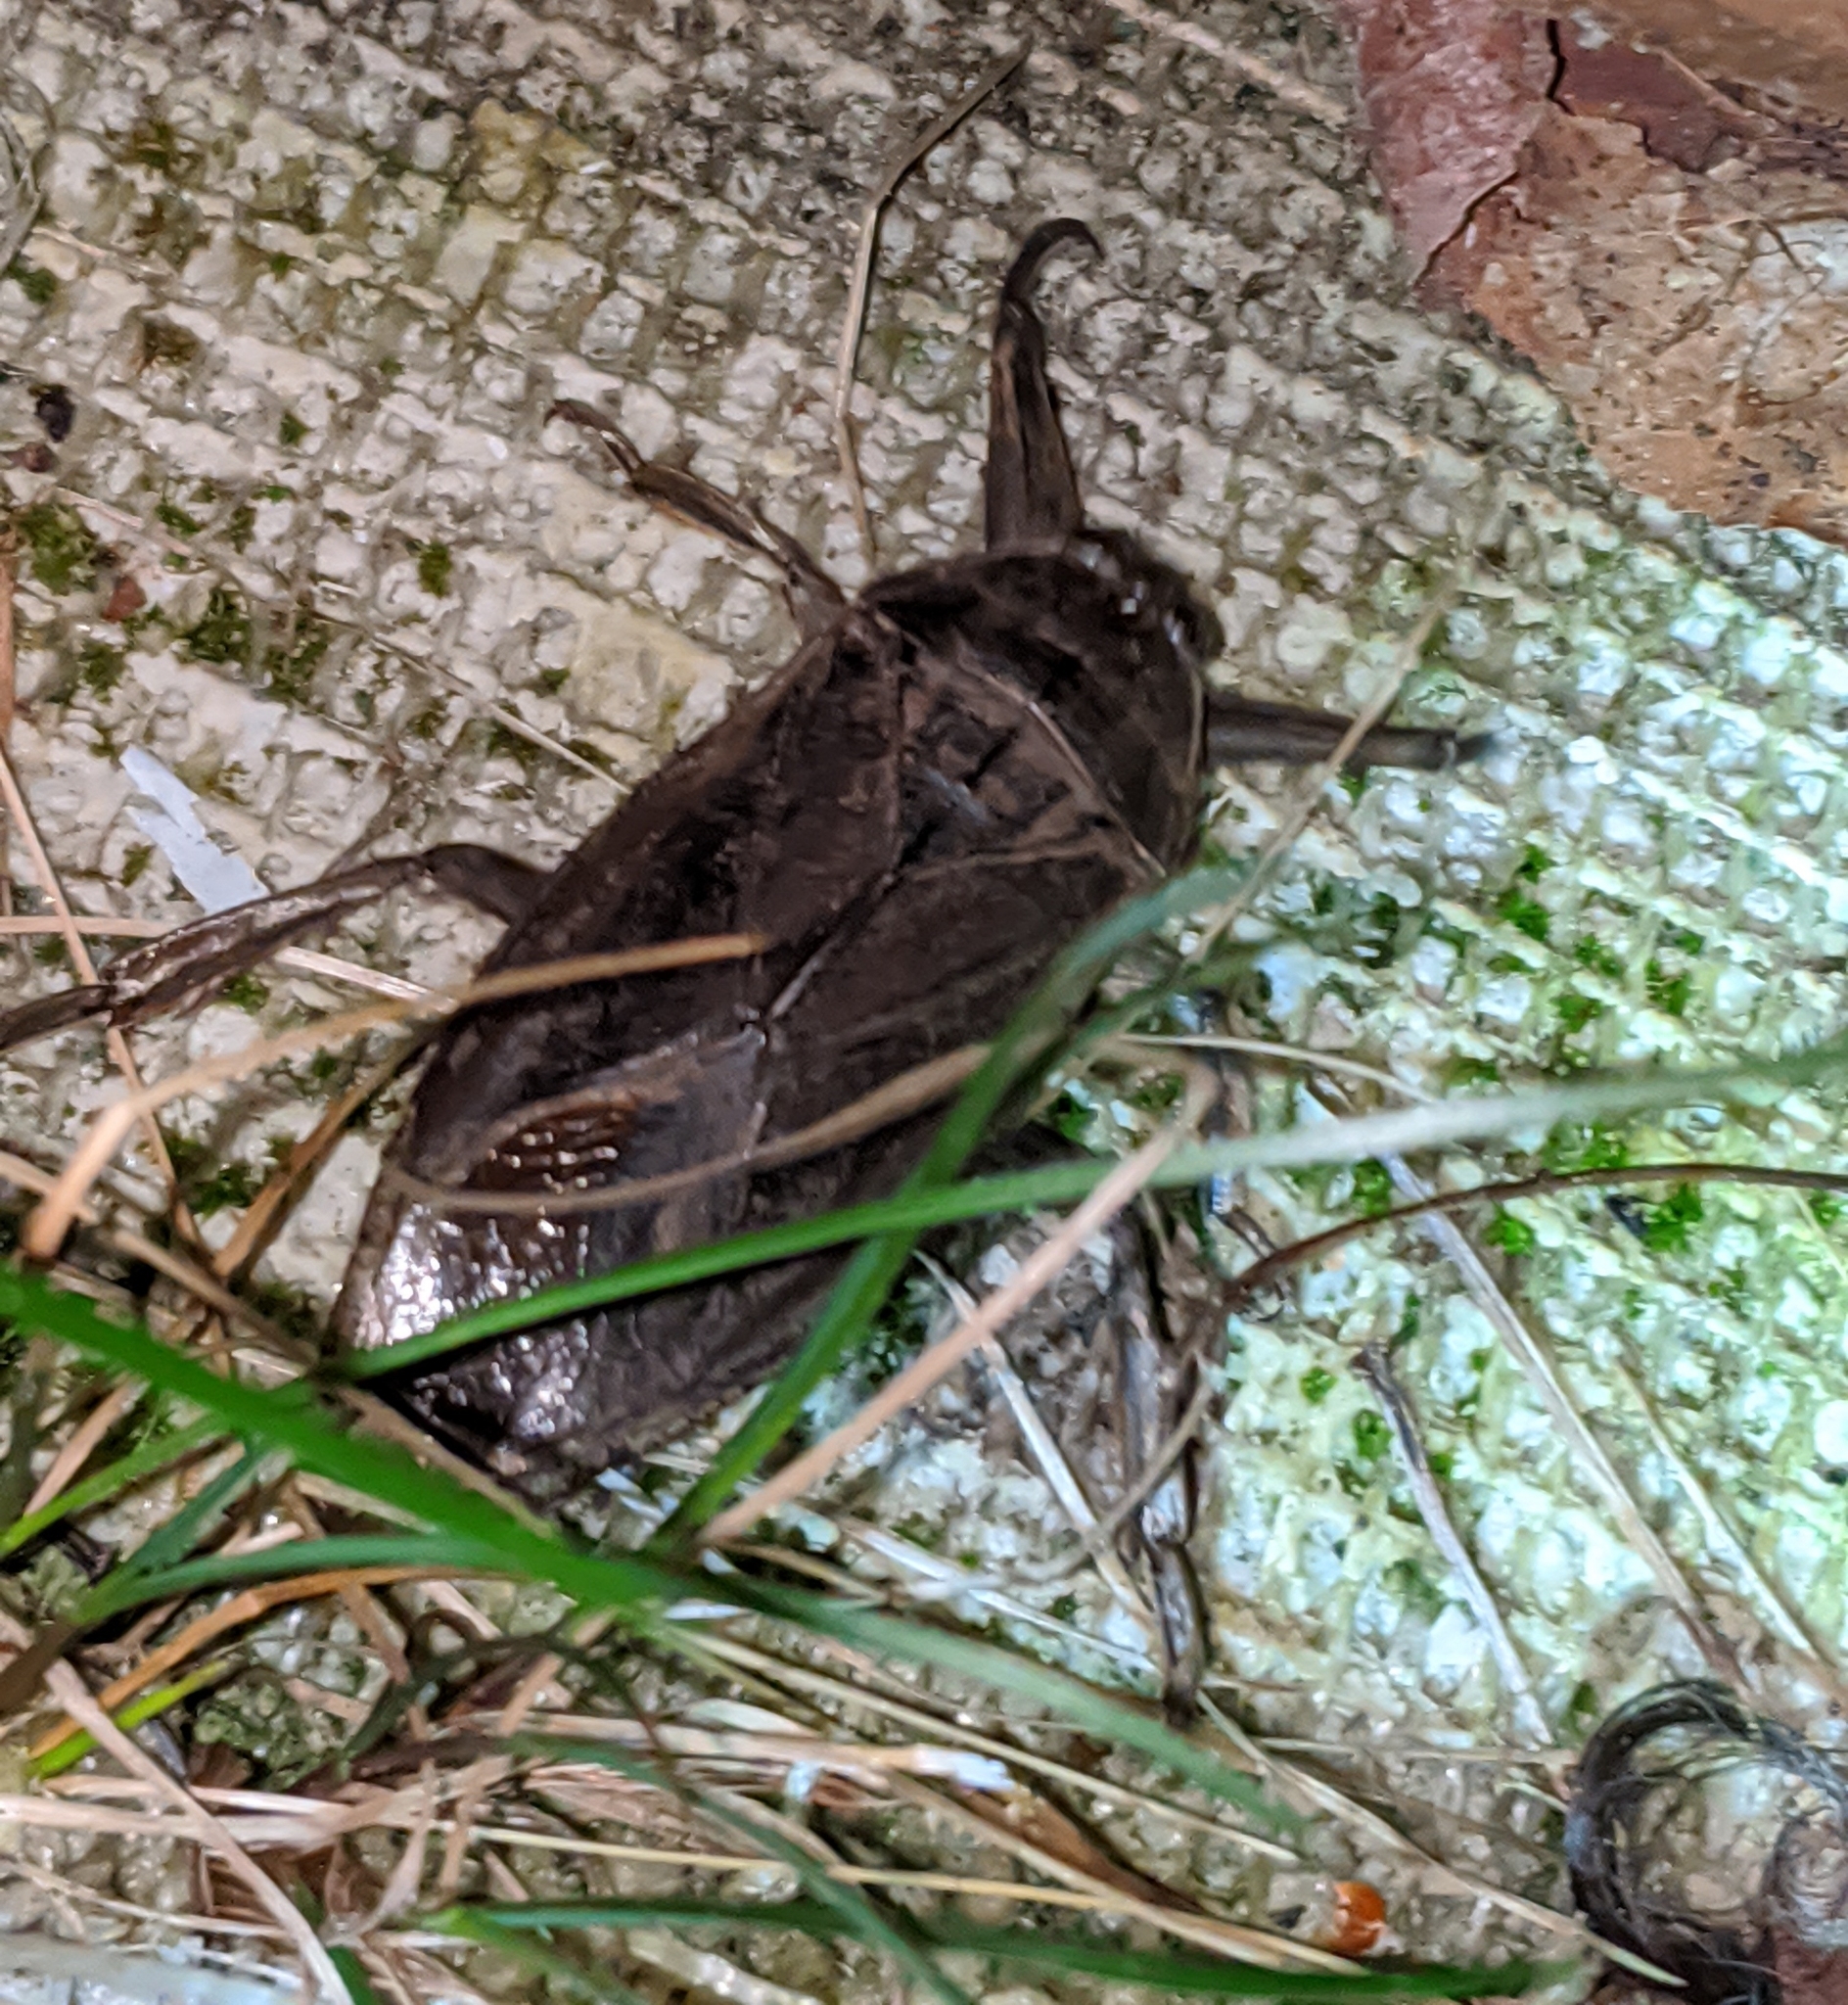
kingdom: Animalia
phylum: Arthropoda
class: Insecta
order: Hemiptera
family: Belostomatidae
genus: Lethocerus
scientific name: Lethocerus americanus
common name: Giant water bug
